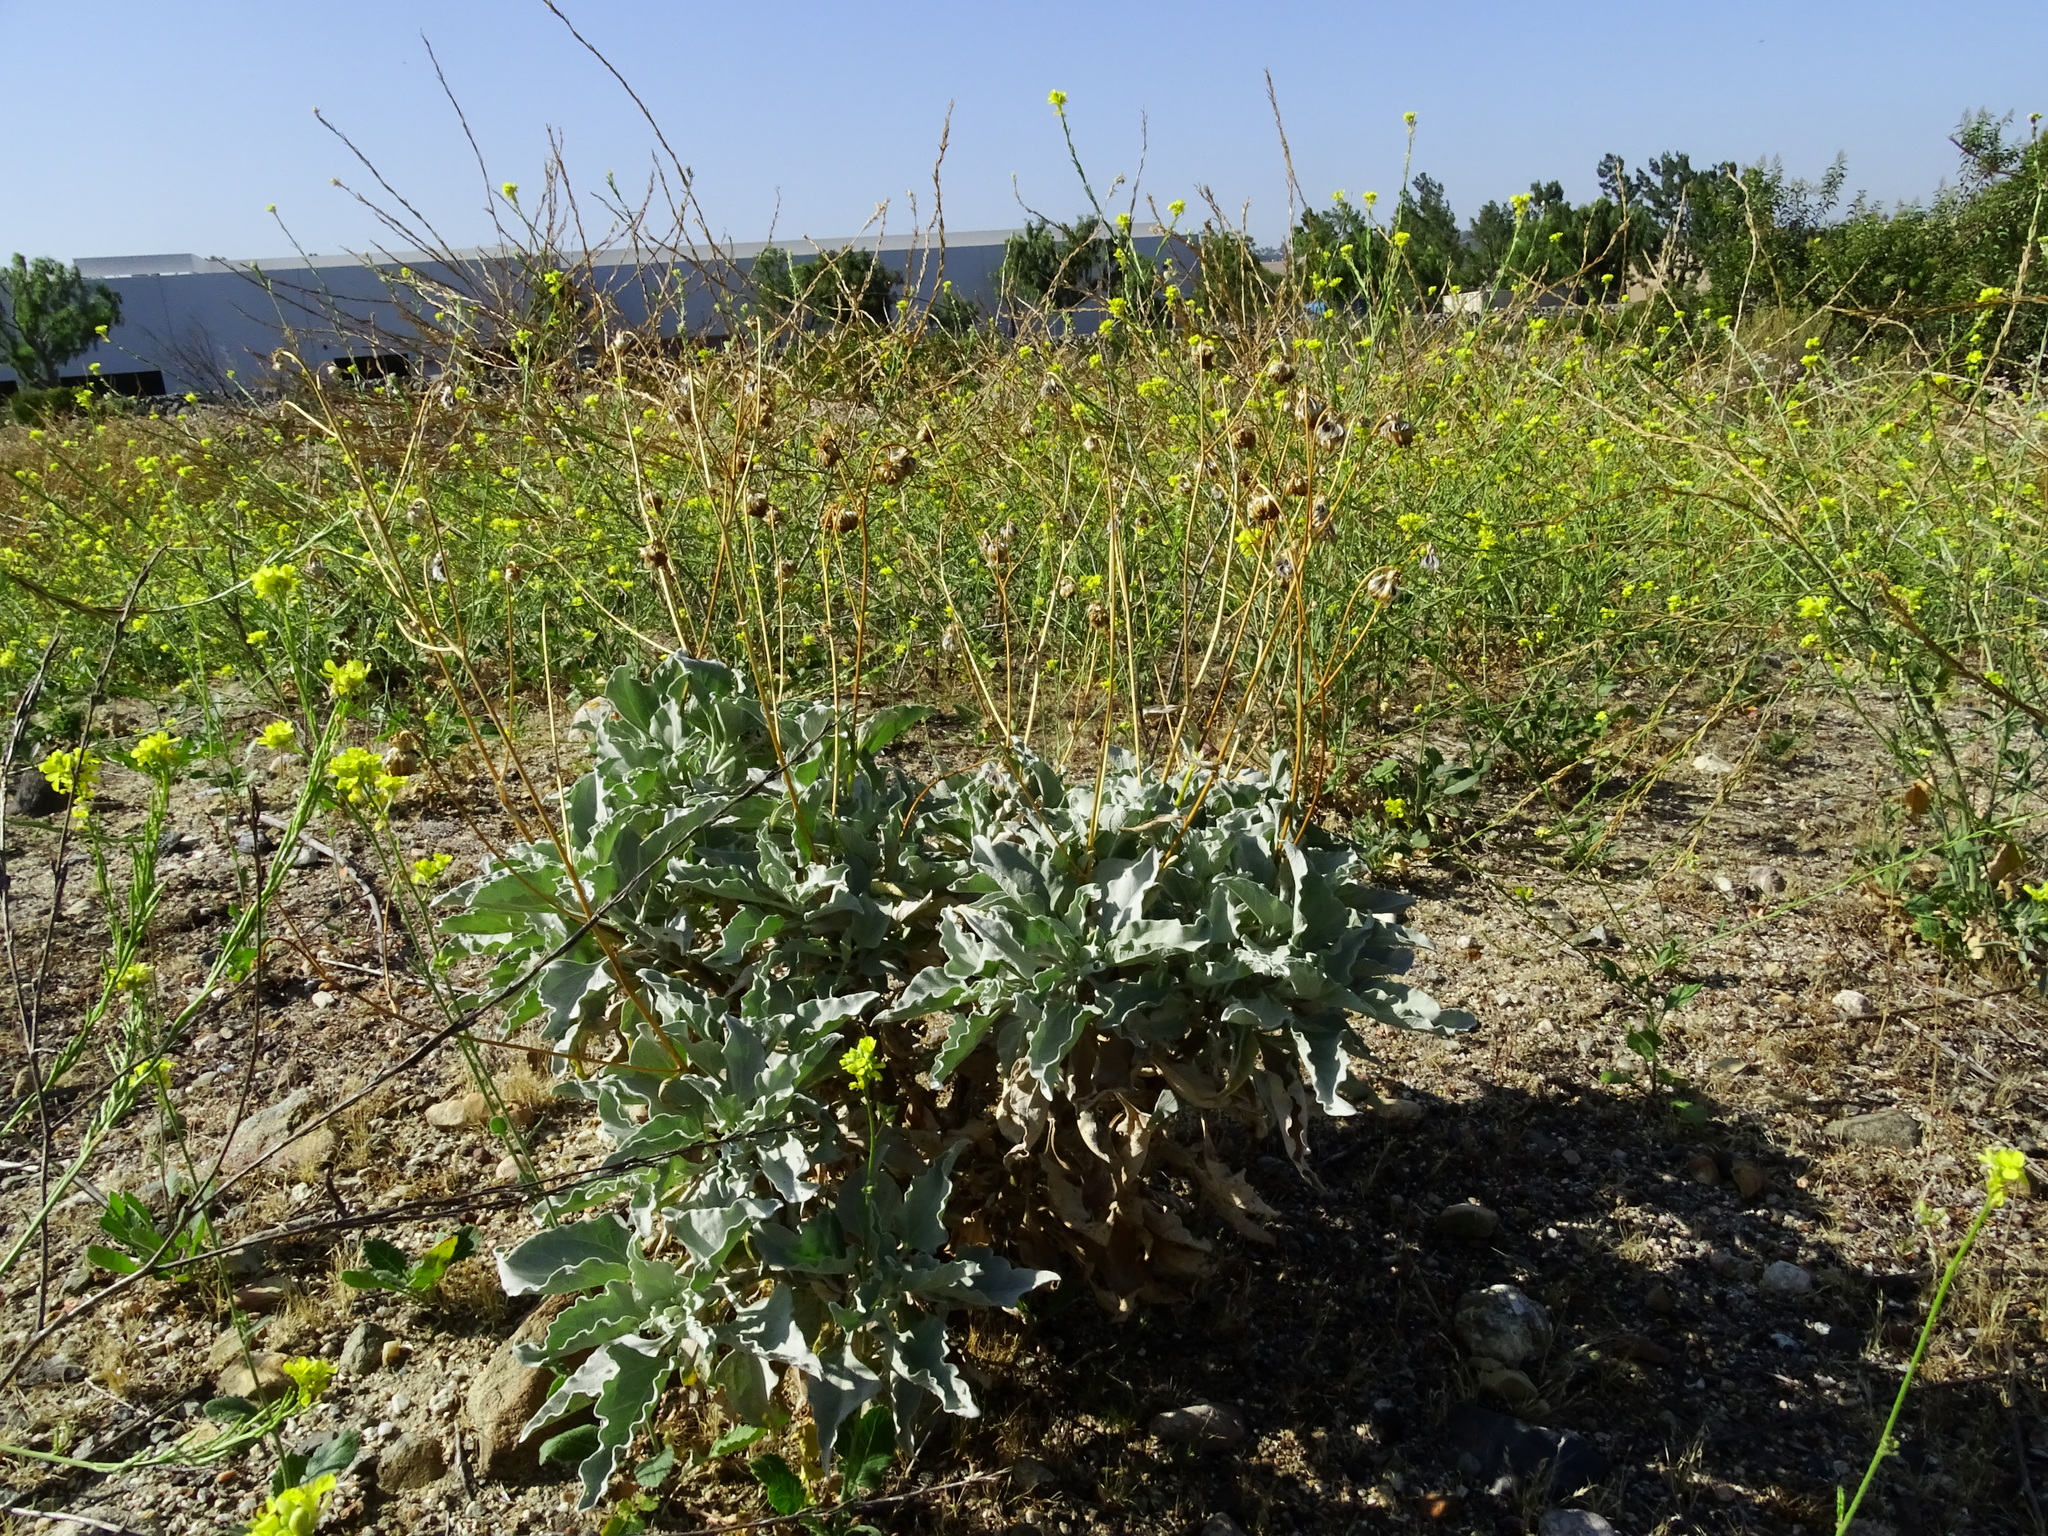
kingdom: Plantae
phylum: Tracheophyta
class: Magnoliopsida
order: Asterales
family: Asteraceae
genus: Encelia
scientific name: Encelia farinosa
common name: Brittlebush
